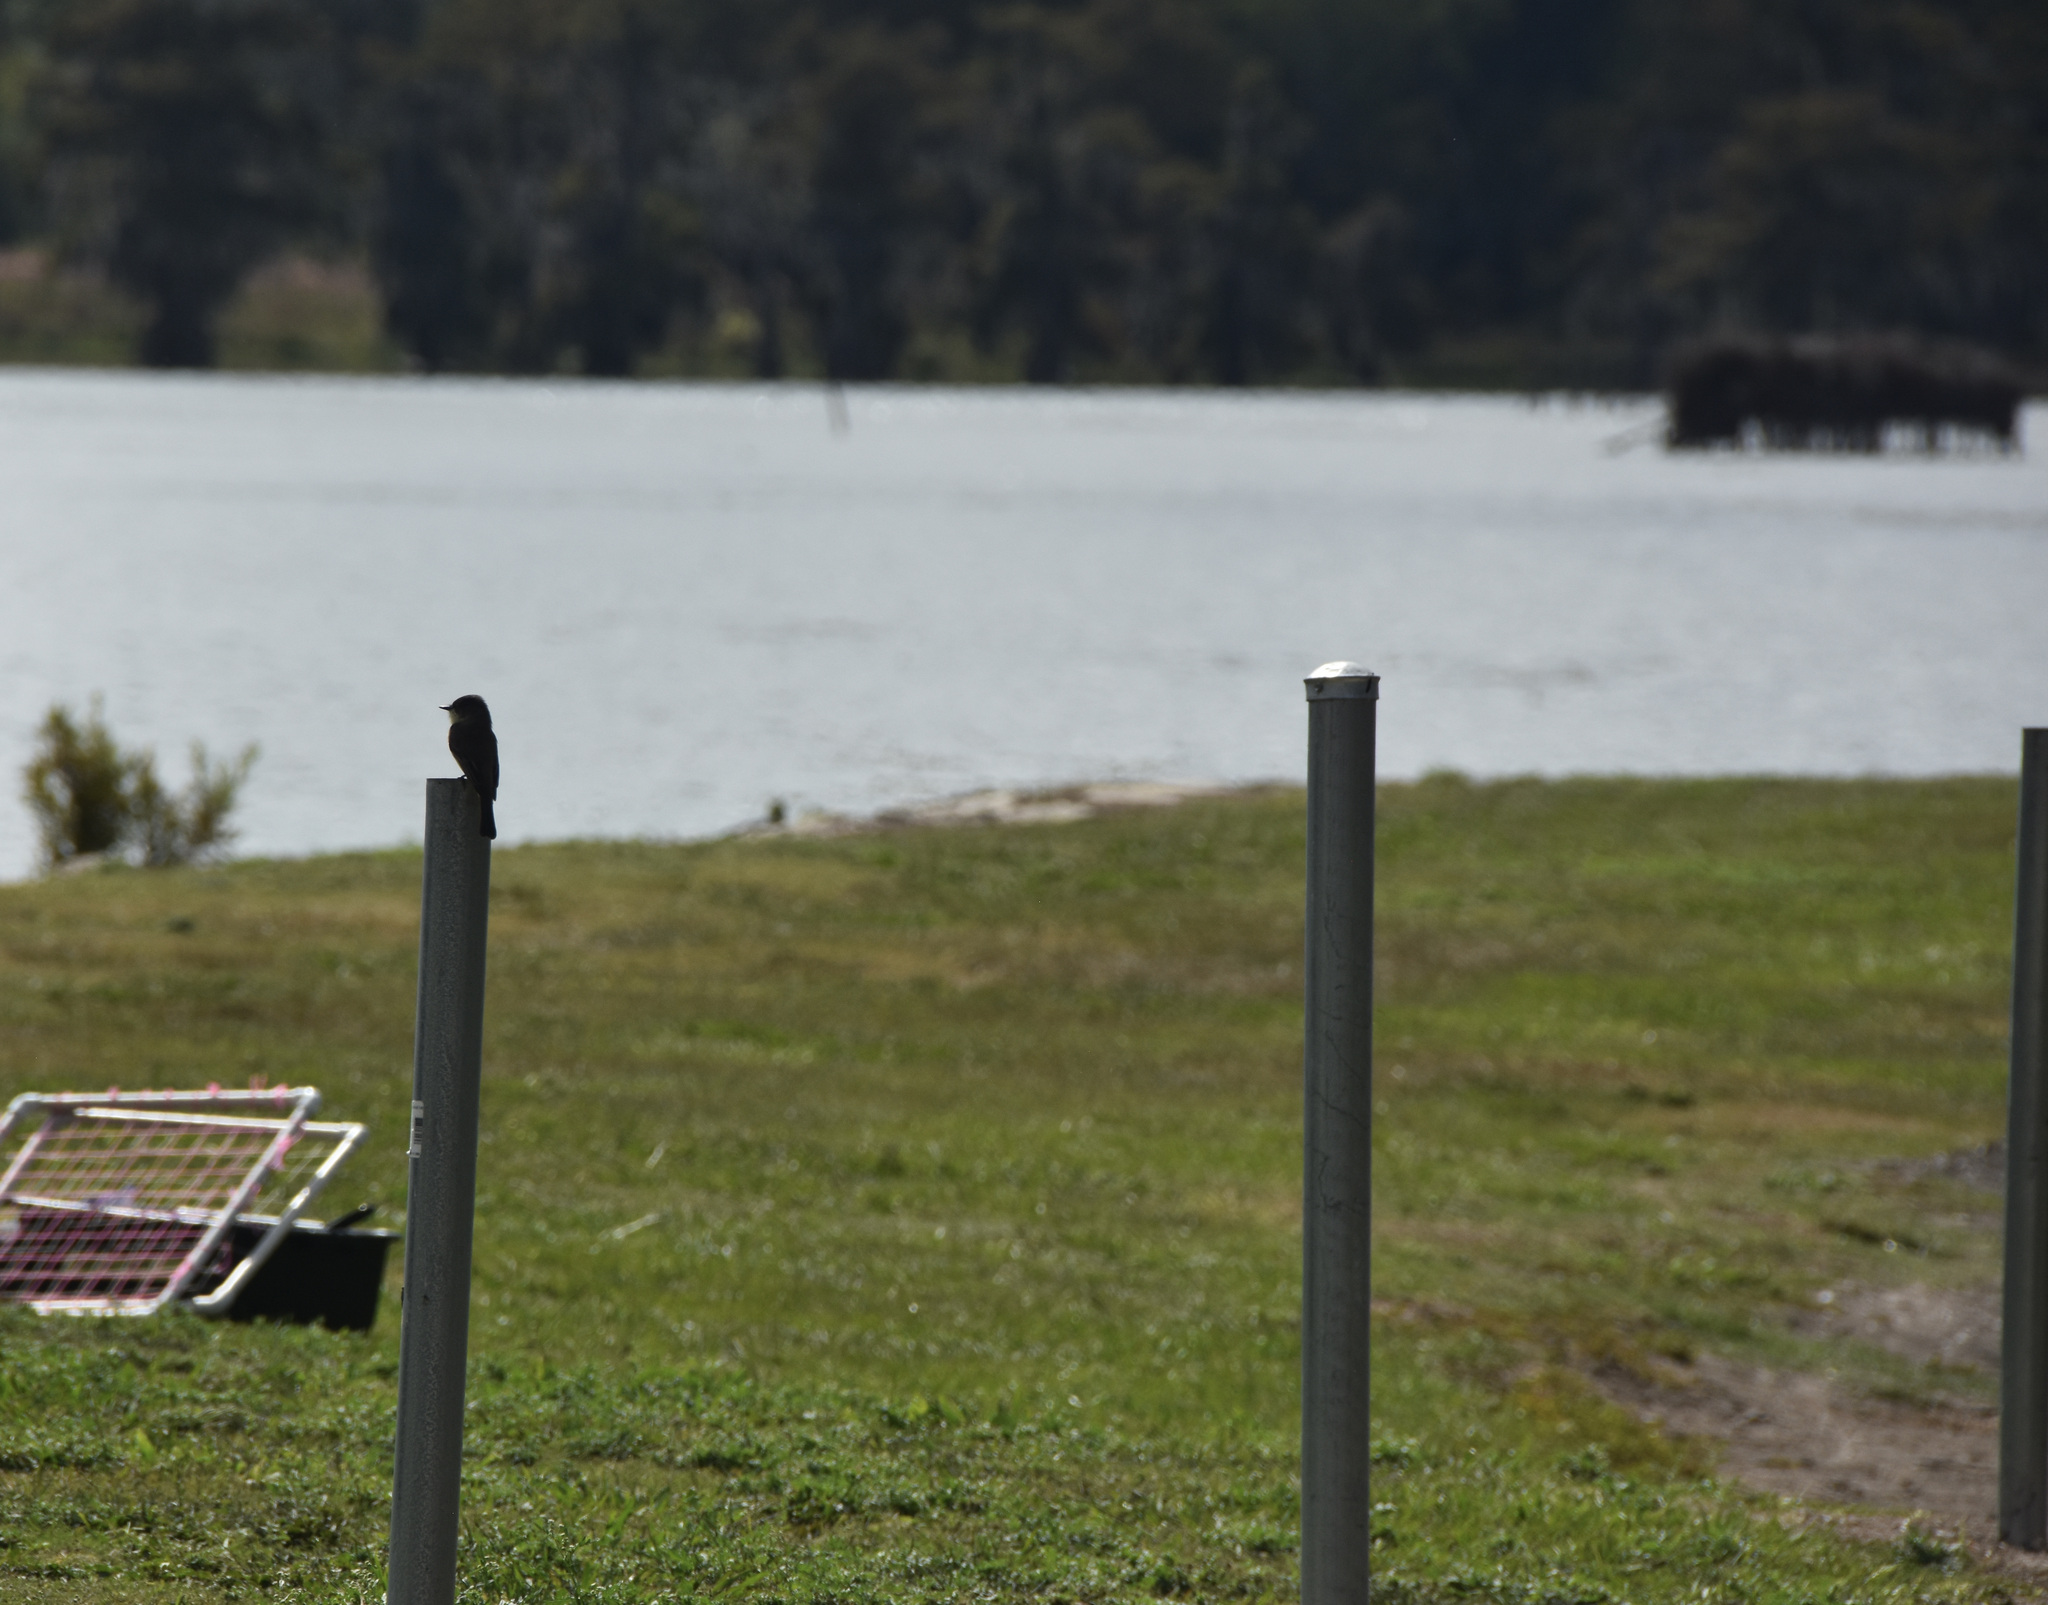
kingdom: Animalia
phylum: Chordata
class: Aves
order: Passeriformes
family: Tyrannidae
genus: Sayornis
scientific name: Sayornis phoebe
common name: Eastern phoebe
